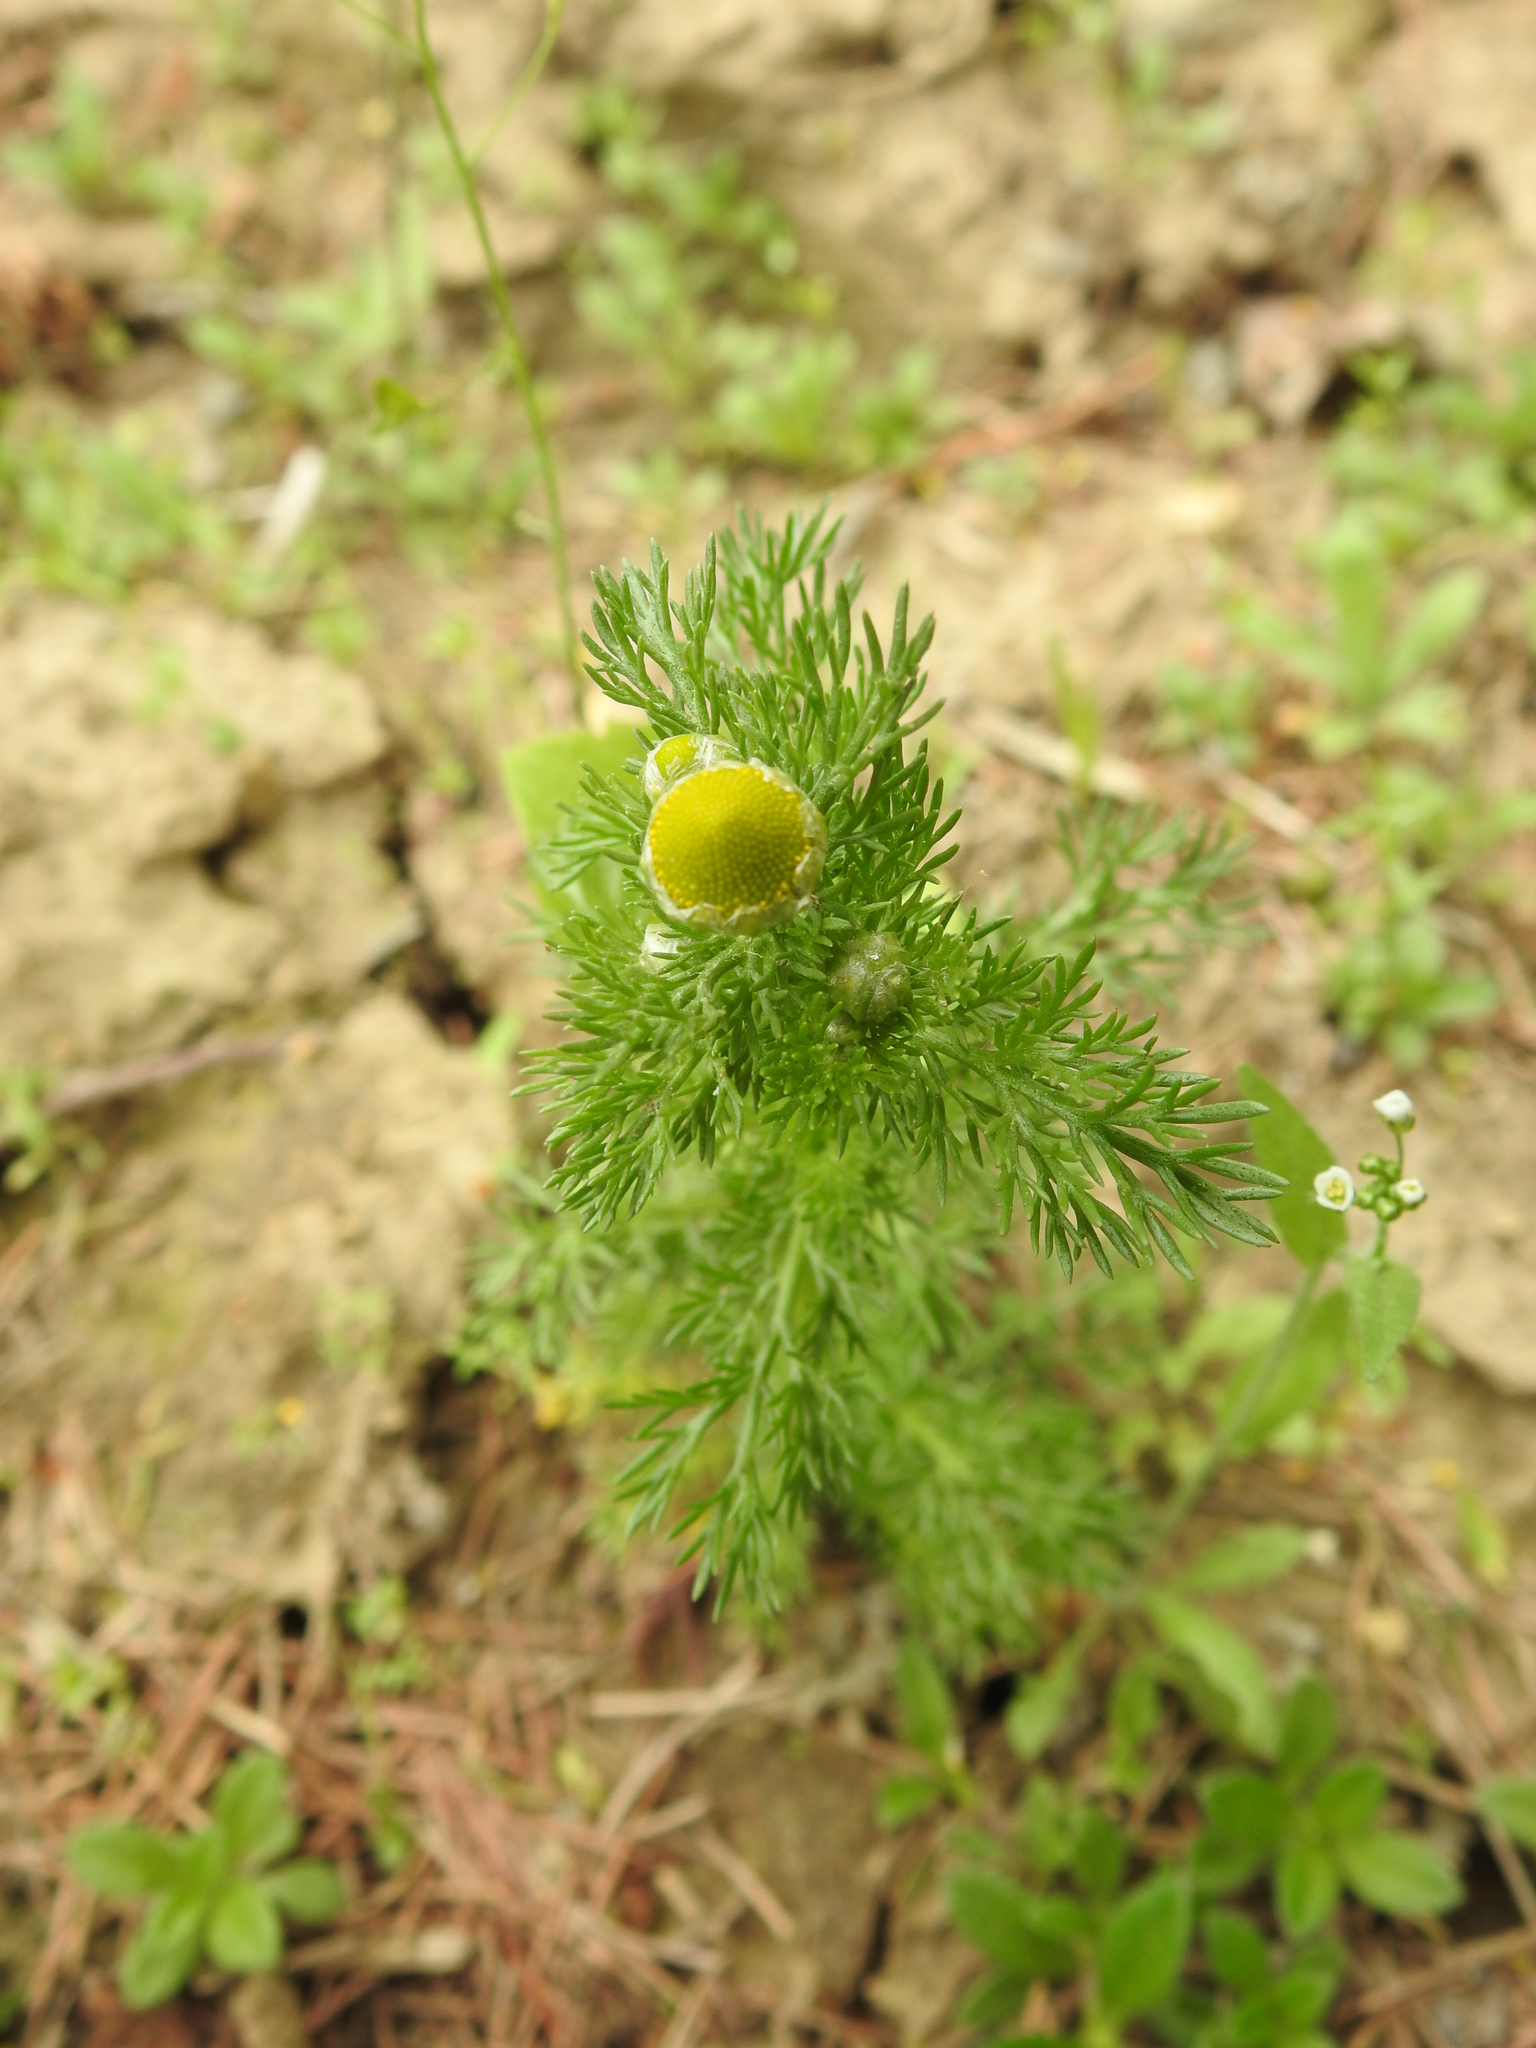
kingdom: Plantae
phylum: Tracheophyta
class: Magnoliopsida
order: Asterales
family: Asteraceae
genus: Matricaria
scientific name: Matricaria discoidea
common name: Disc mayweed
